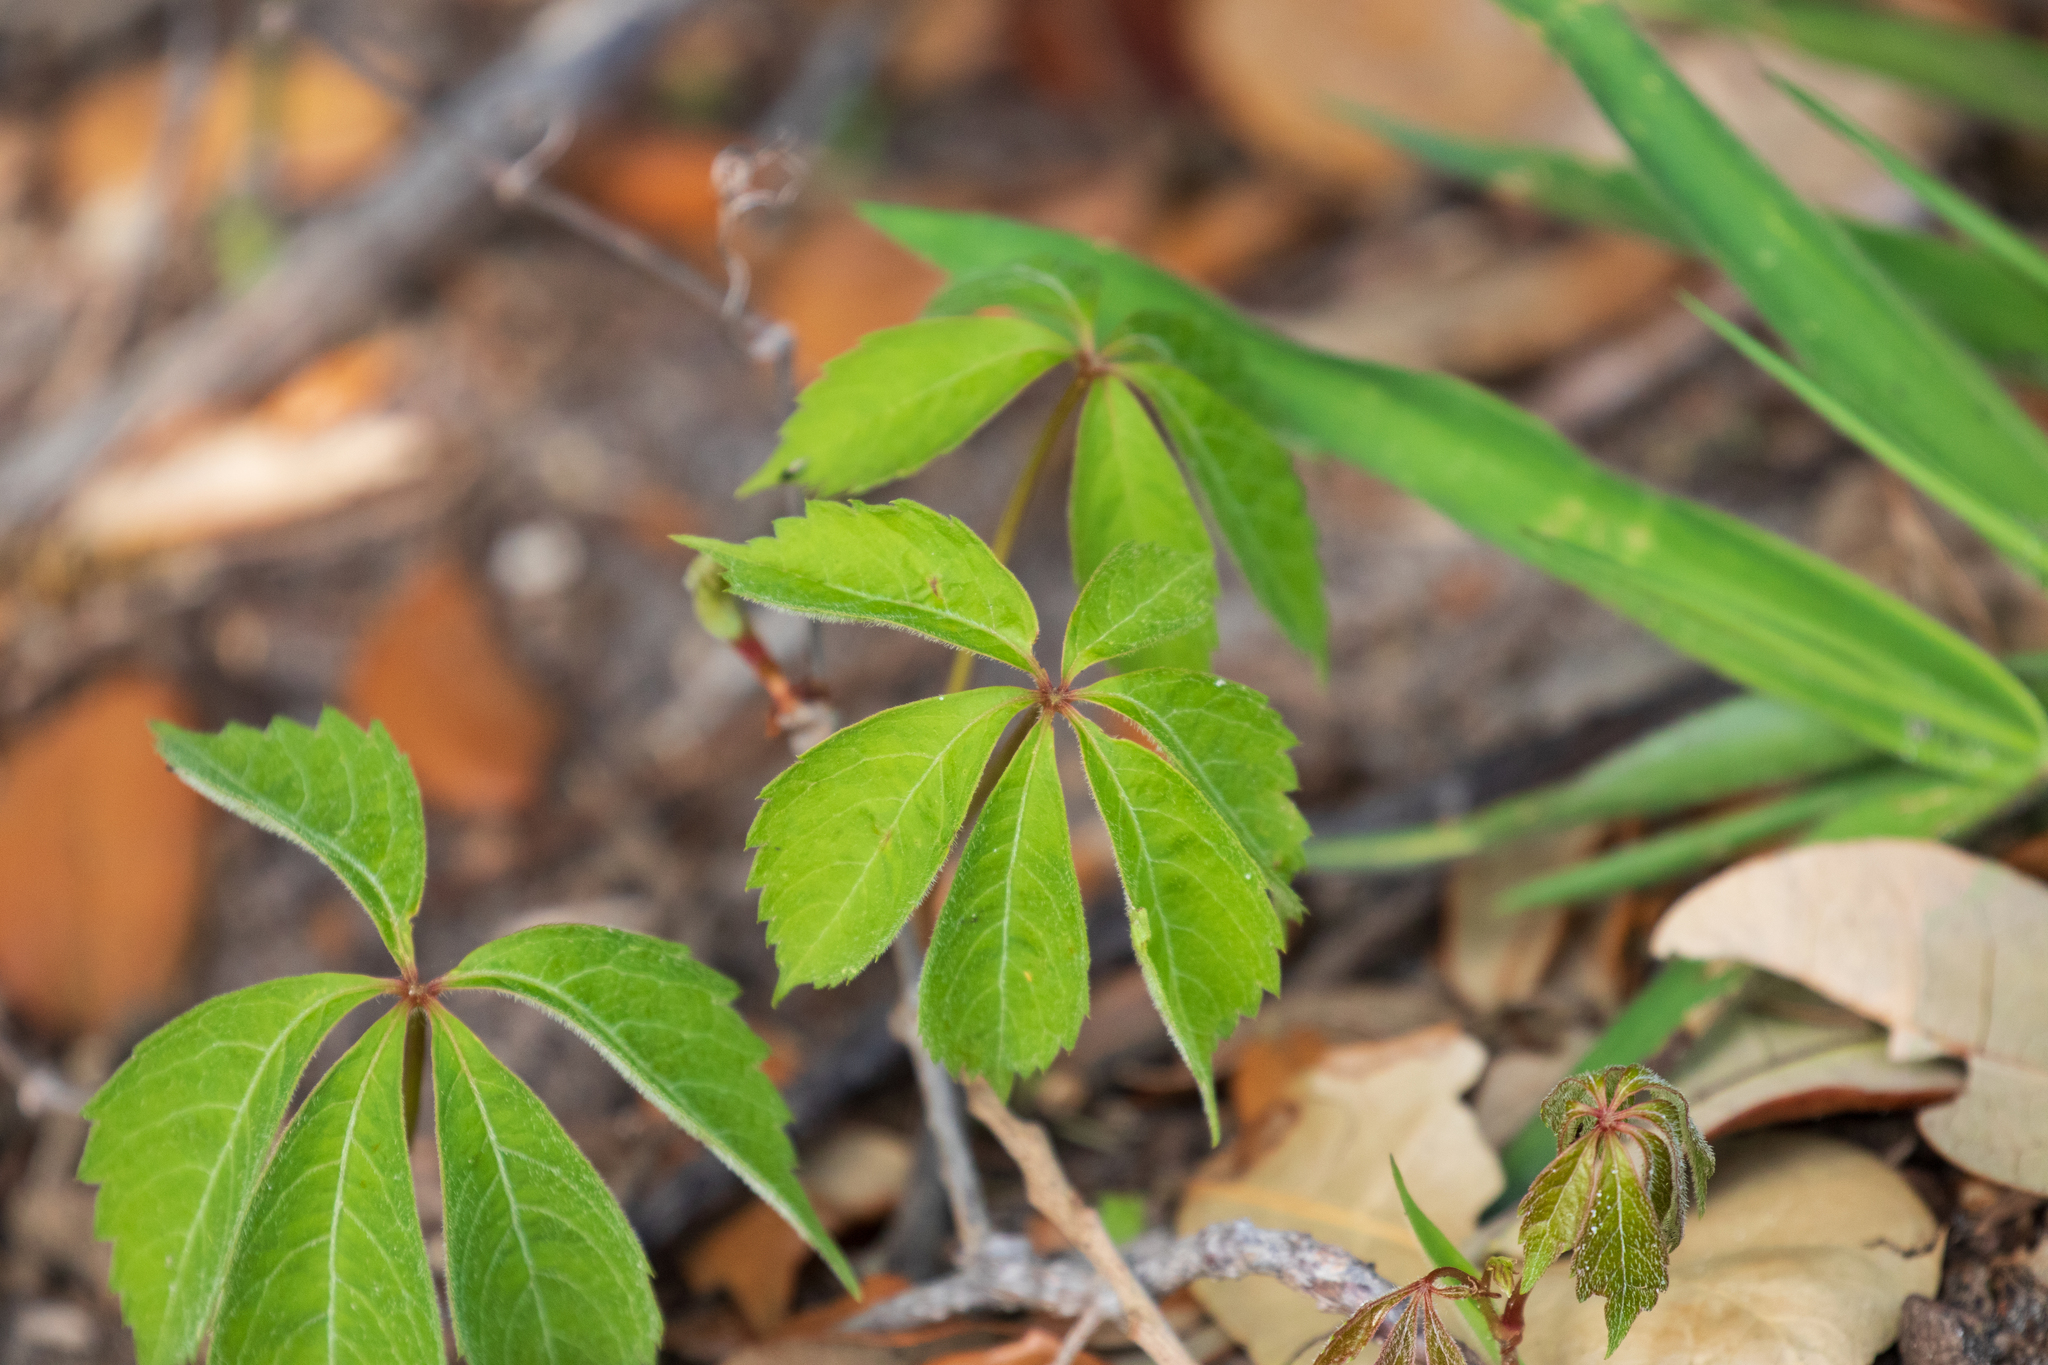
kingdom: Plantae
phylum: Tracheophyta
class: Magnoliopsida
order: Vitales
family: Vitaceae
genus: Parthenocissus
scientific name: Parthenocissus quinquefolia
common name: Virginia-creeper
